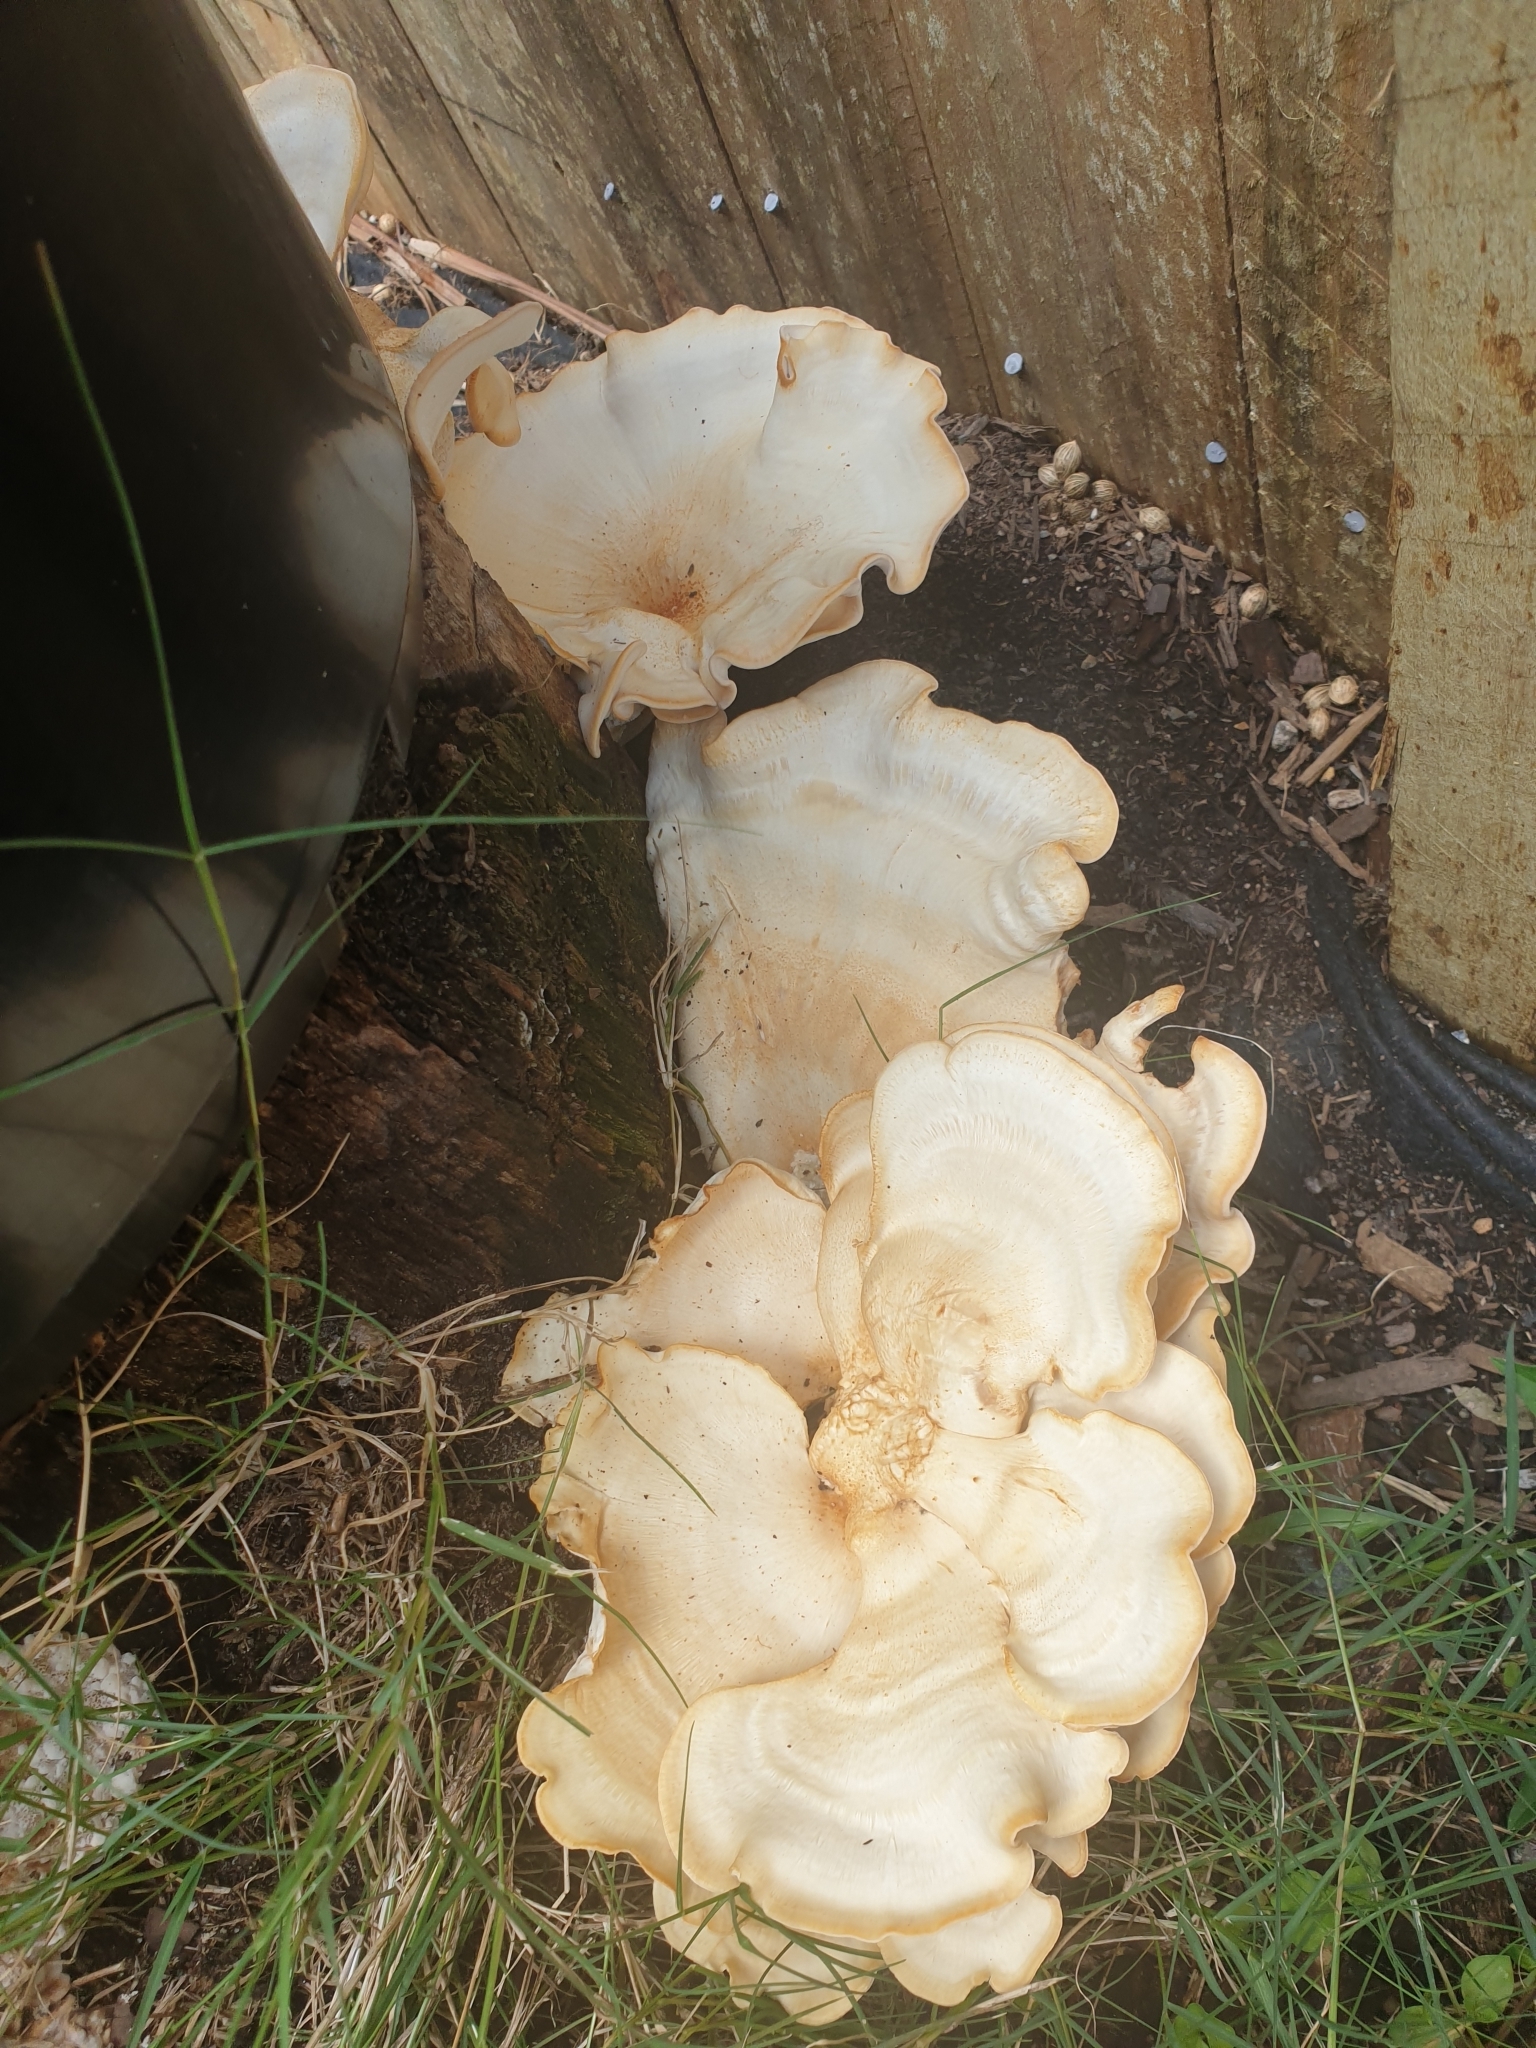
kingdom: Fungi
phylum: Basidiomycota
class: Agaricomycetes
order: Polyporales
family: Meripilaceae
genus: Meripilus
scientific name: Meripilus sumstinei
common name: Black-staining polypore
